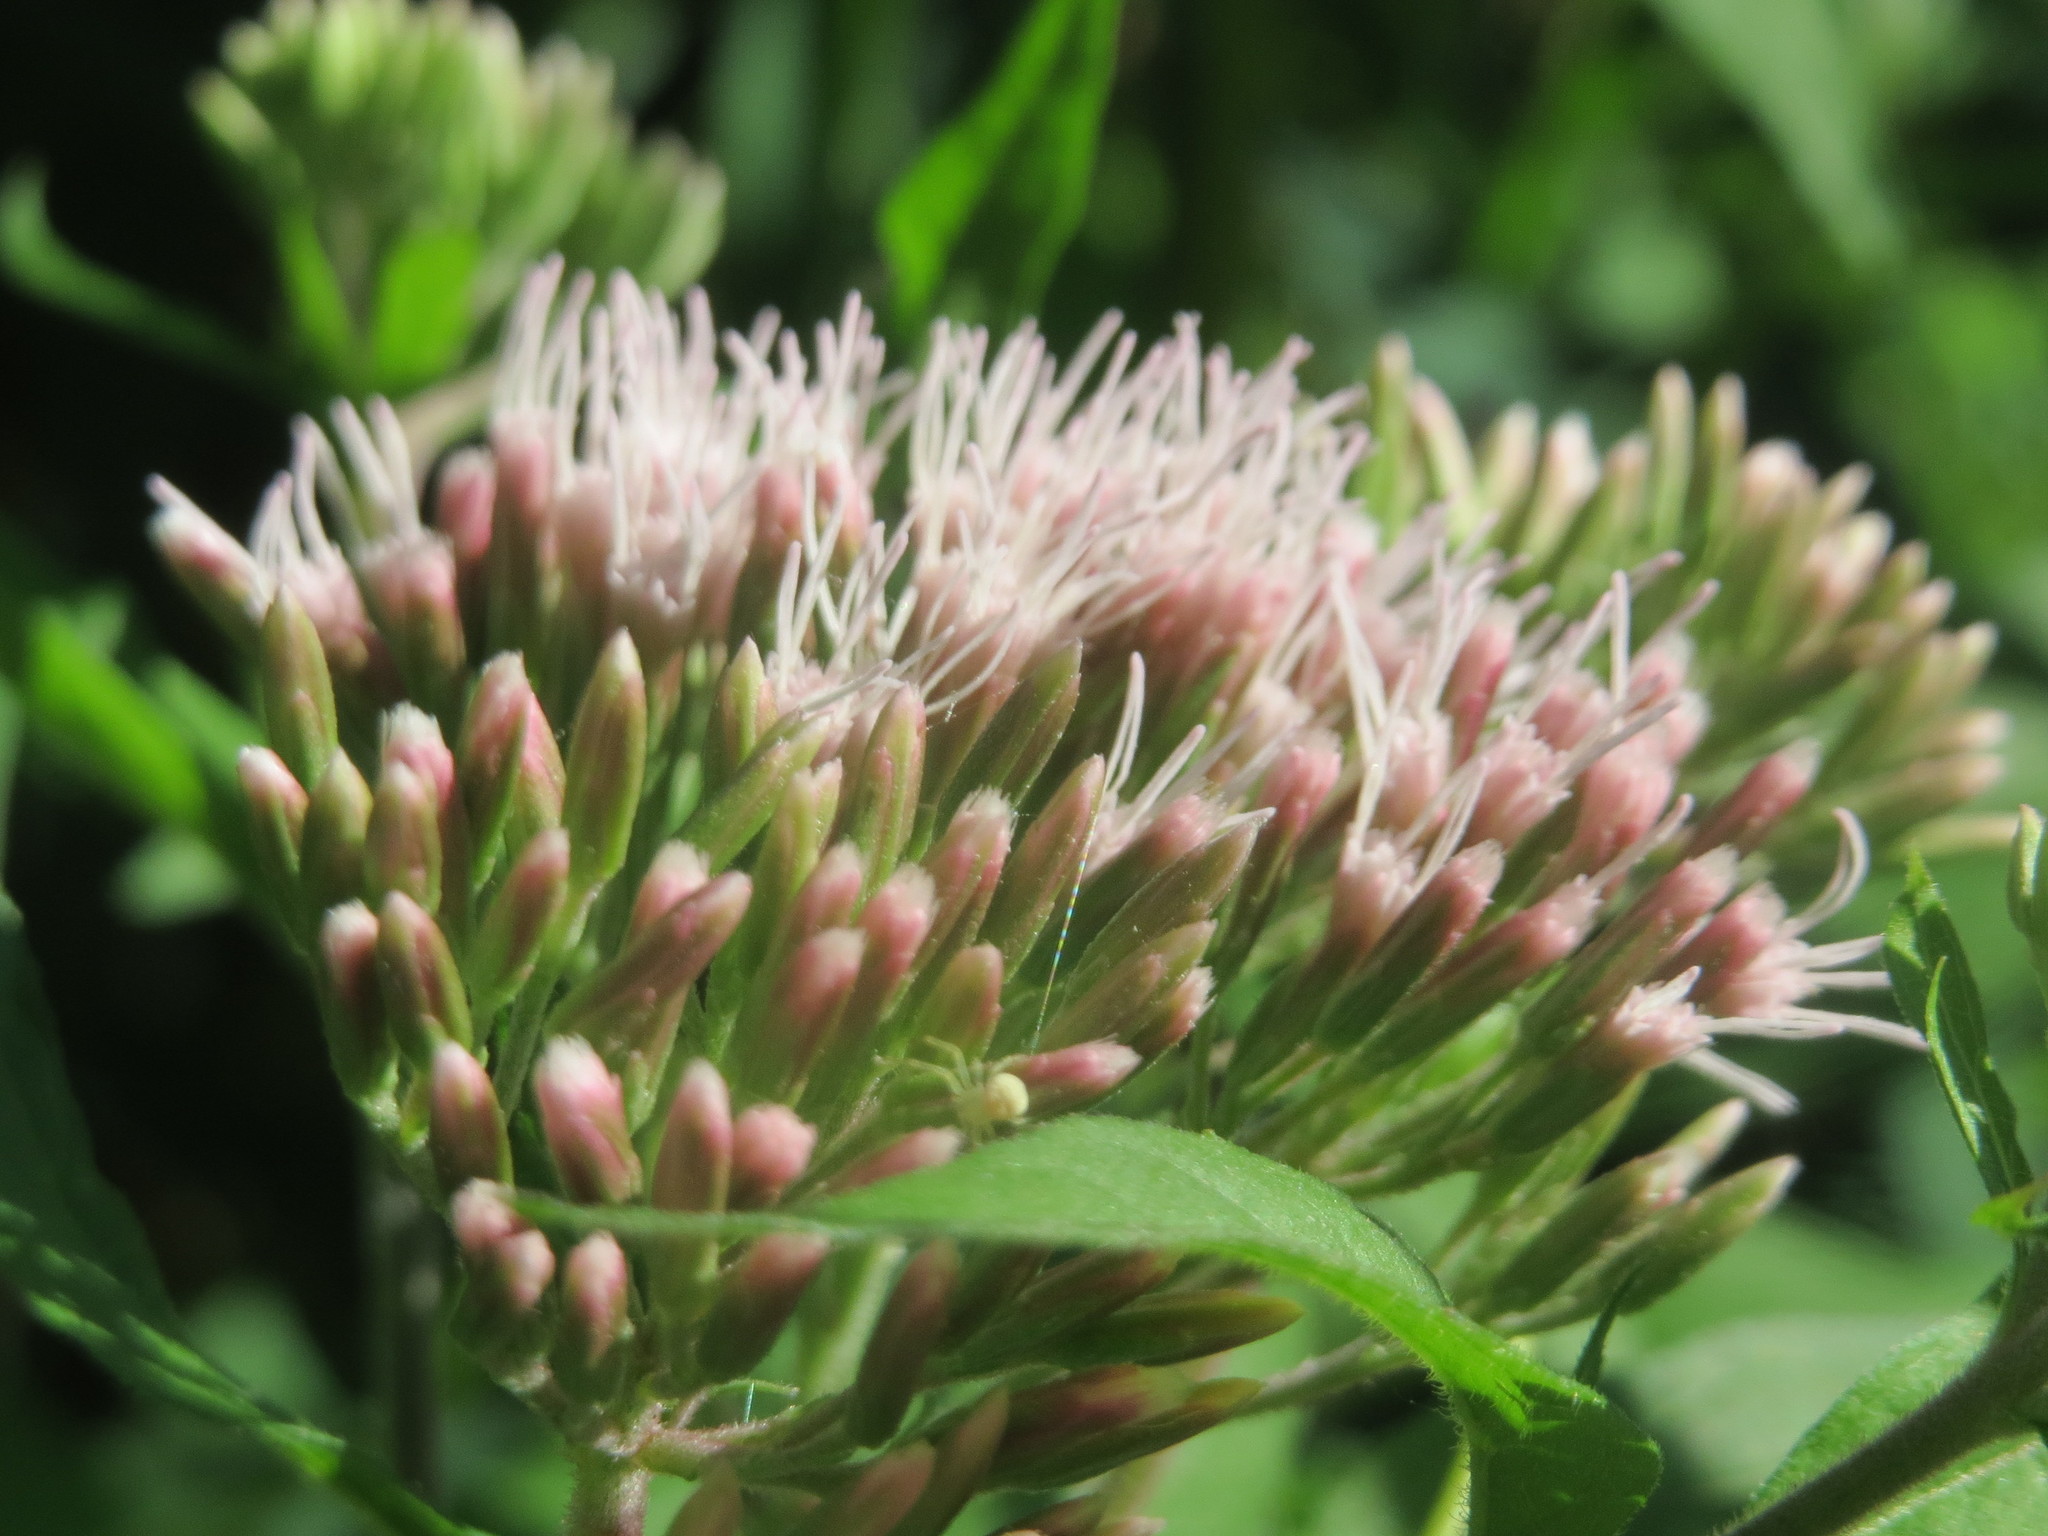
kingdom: Plantae
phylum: Tracheophyta
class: Magnoliopsida
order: Asterales
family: Asteraceae
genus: Eupatorium
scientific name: Eupatorium cannabinum
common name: Hemp-agrimony
